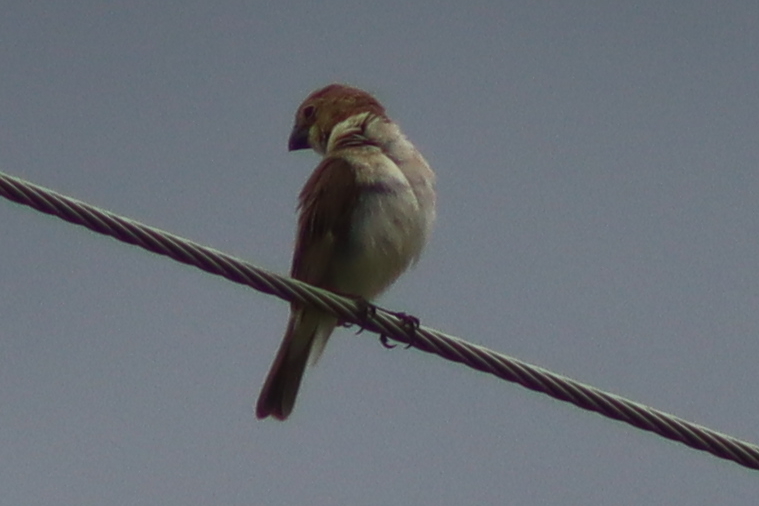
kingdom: Animalia
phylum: Chordata
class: Aves
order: Passeriformes
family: Thraupidae
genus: Sporophila
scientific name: Sporophila albogularis
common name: White-throated seedeater
